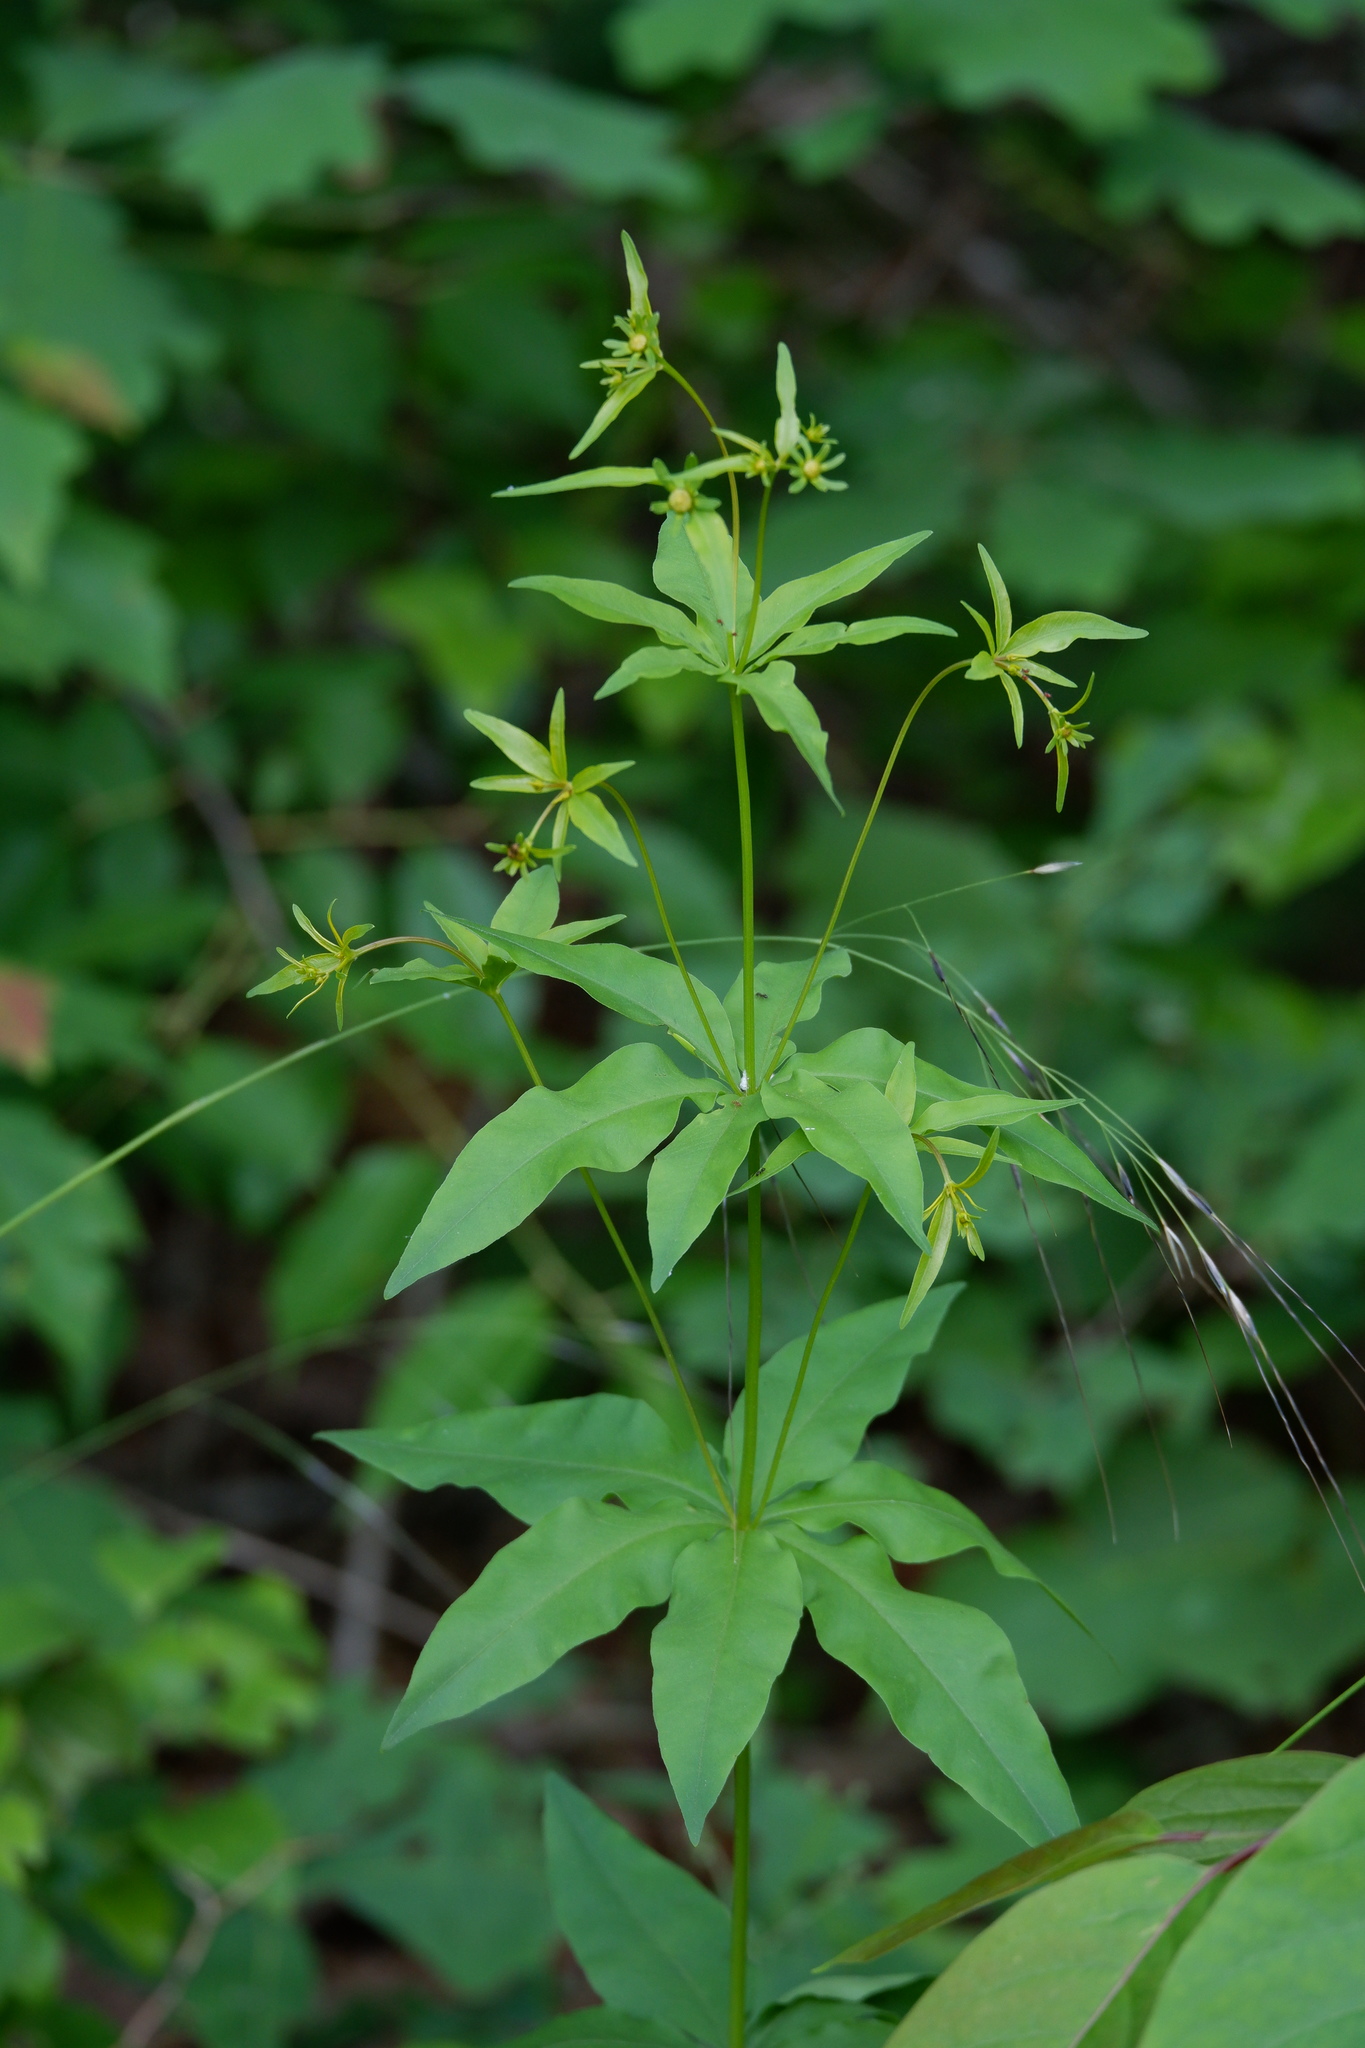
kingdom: Plantae
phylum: Tracheophyta
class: Magnoliopsida
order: Asterales
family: Asteraceae
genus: Coreopsis
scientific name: Coreopsis major
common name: Forest tickseed
